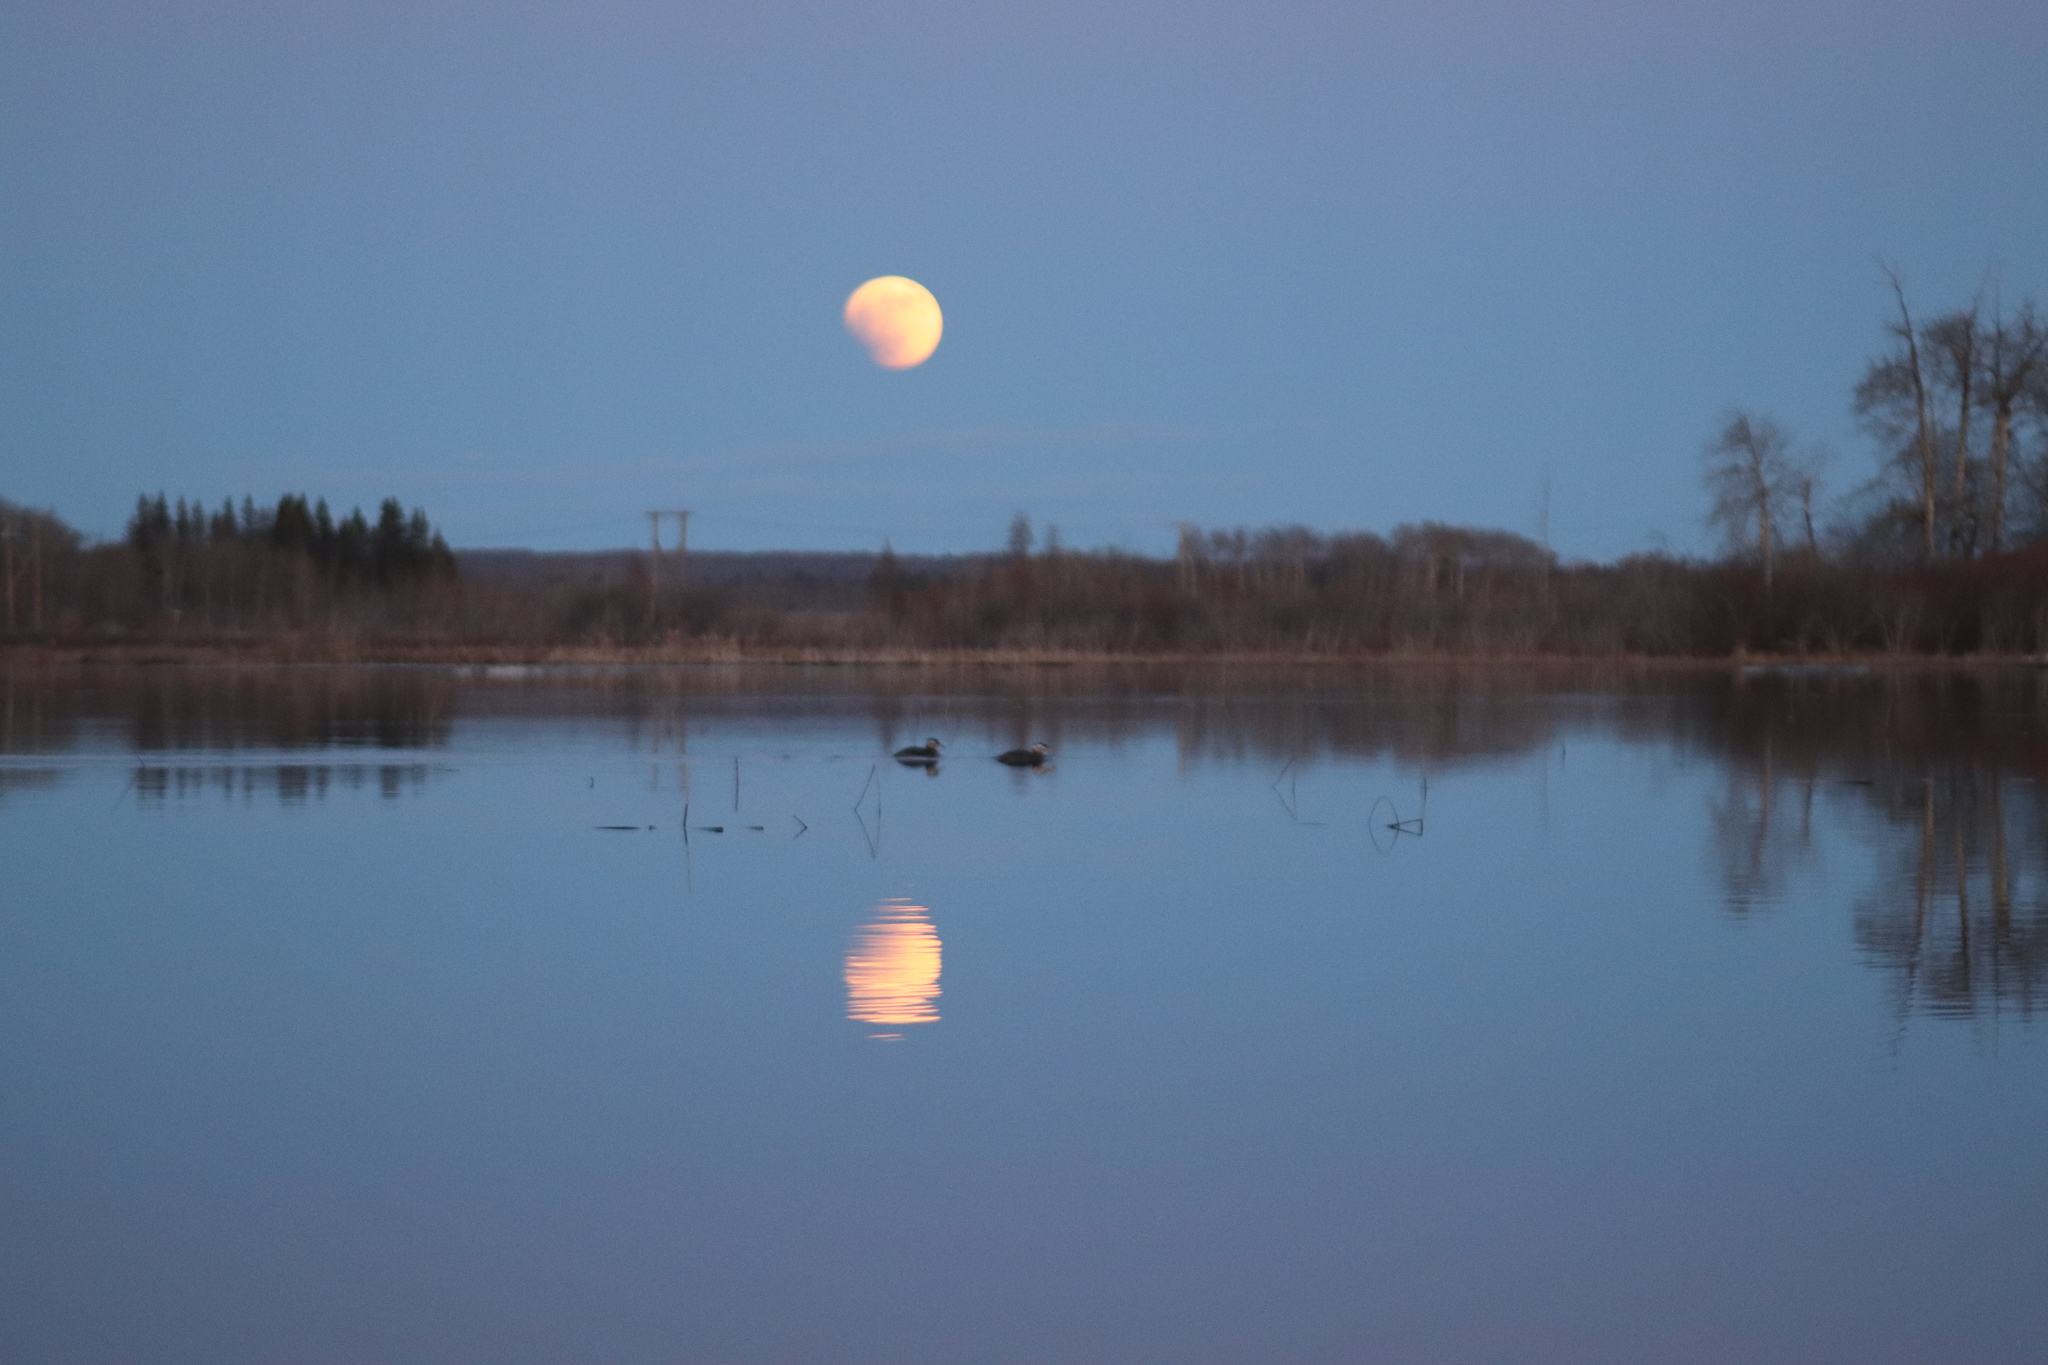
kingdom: Animalia
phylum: Chordata
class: Aves
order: Podicipediformes
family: Podicipedidae
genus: Podiceps
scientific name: Podiceps grisegena
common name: Red-necked grebe
